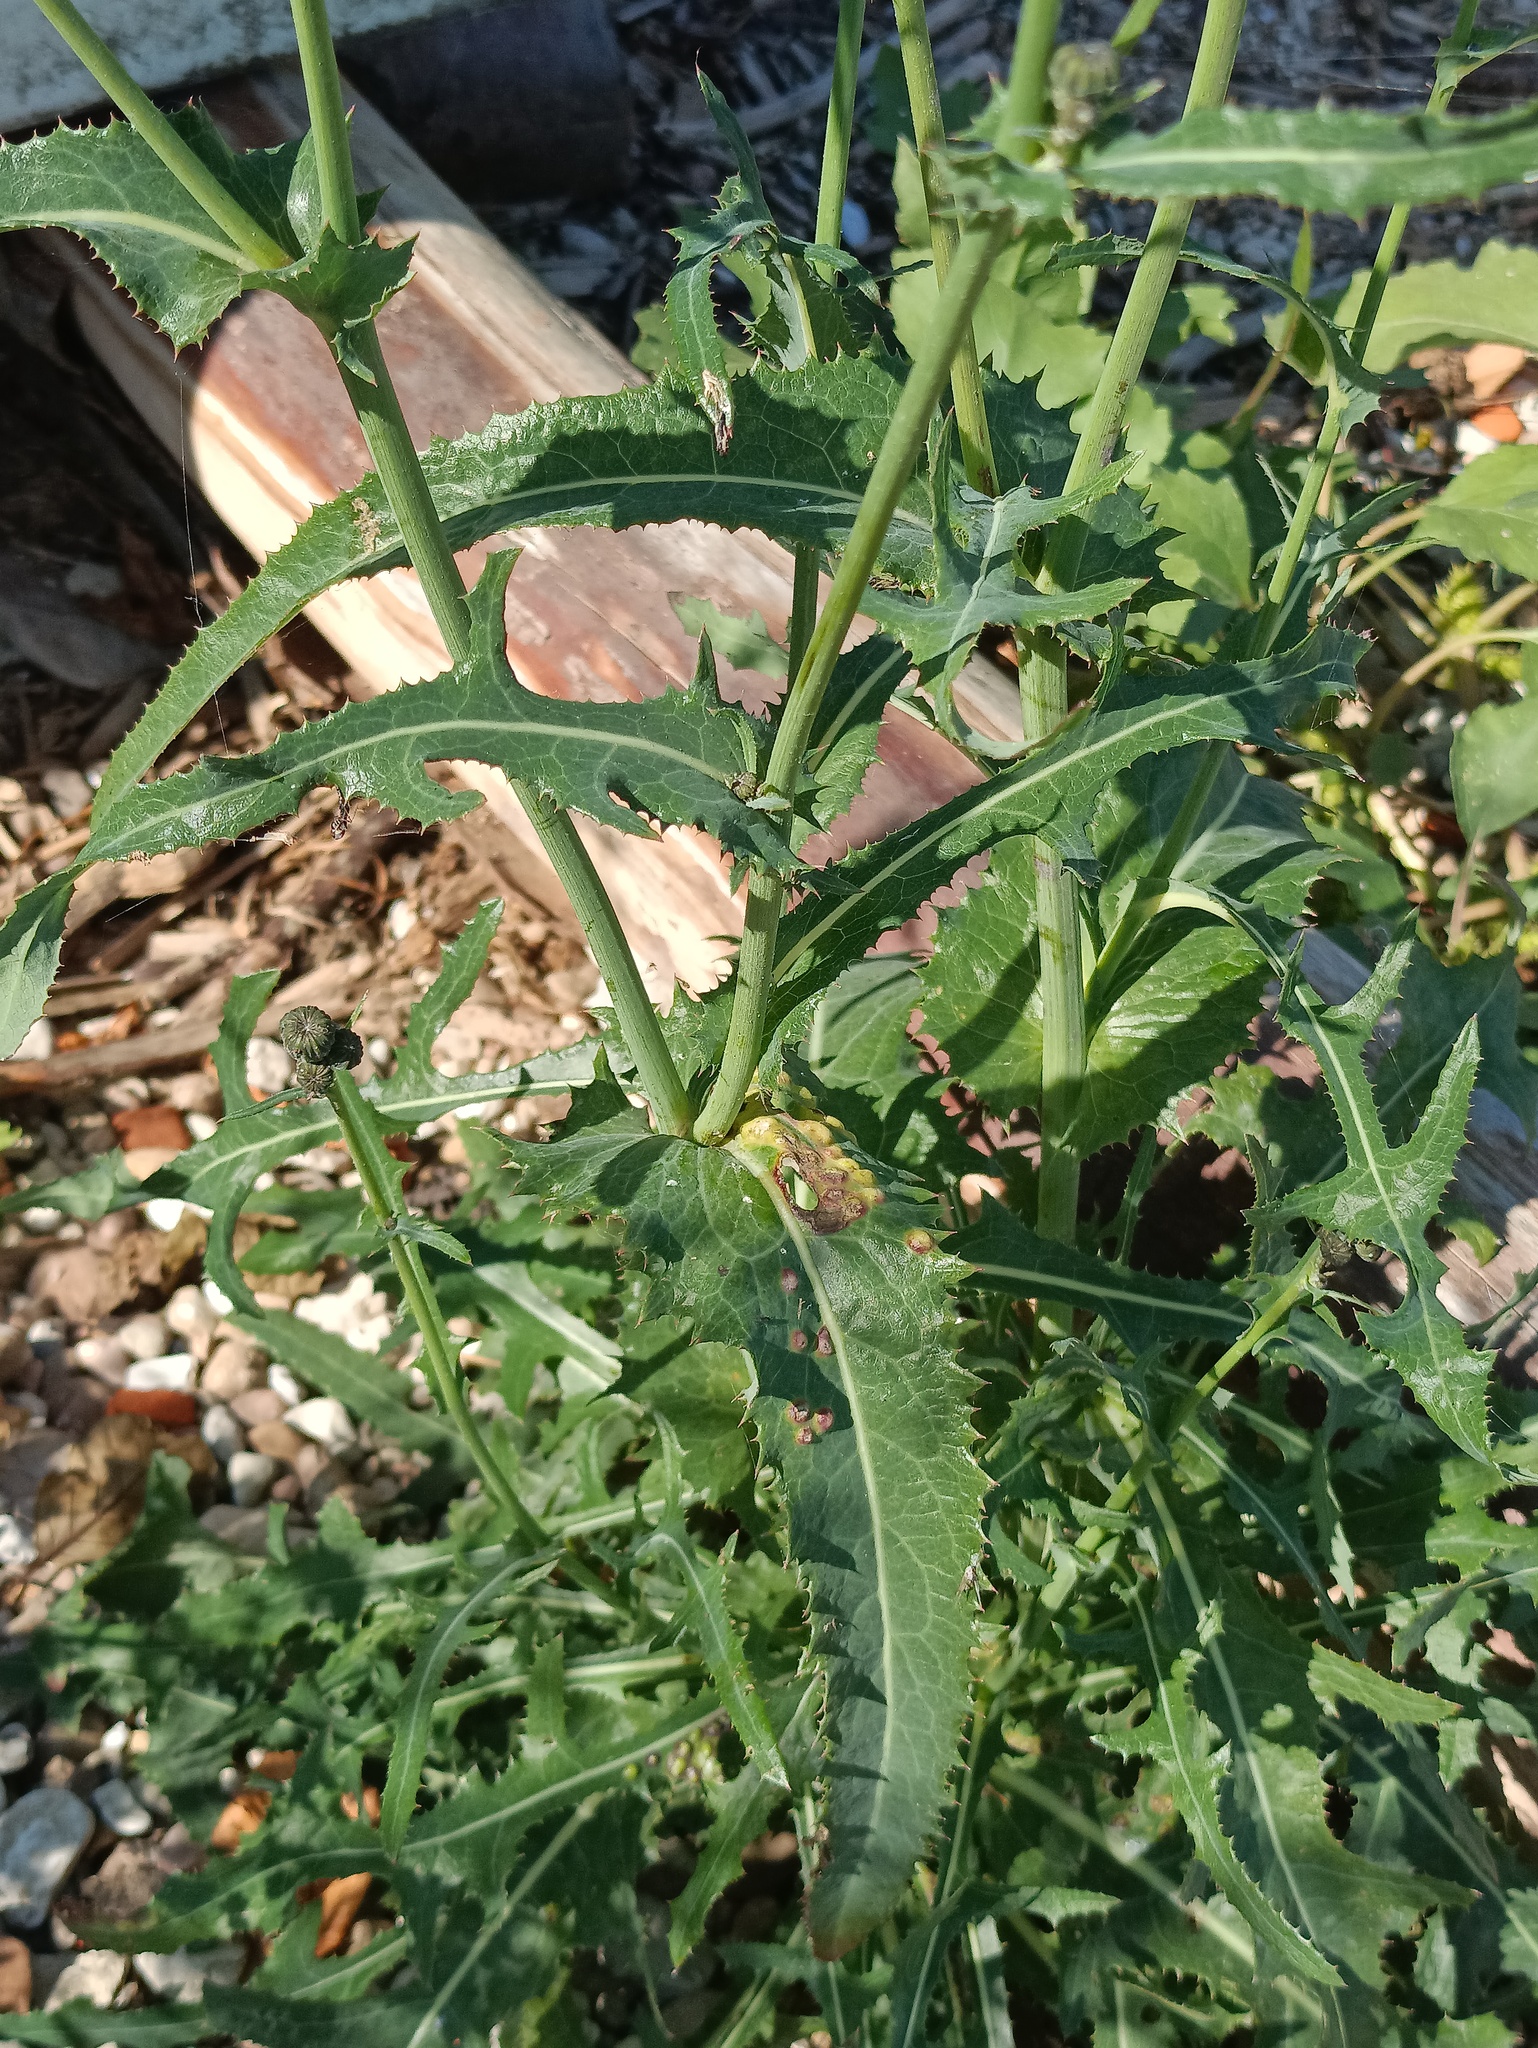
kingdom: Plantae
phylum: Tracheophyta
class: Magnoliopsida
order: Asterales
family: Asteraceae
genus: Sonchus
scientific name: Sonchus arvensis
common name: Perennial sow-thistle
